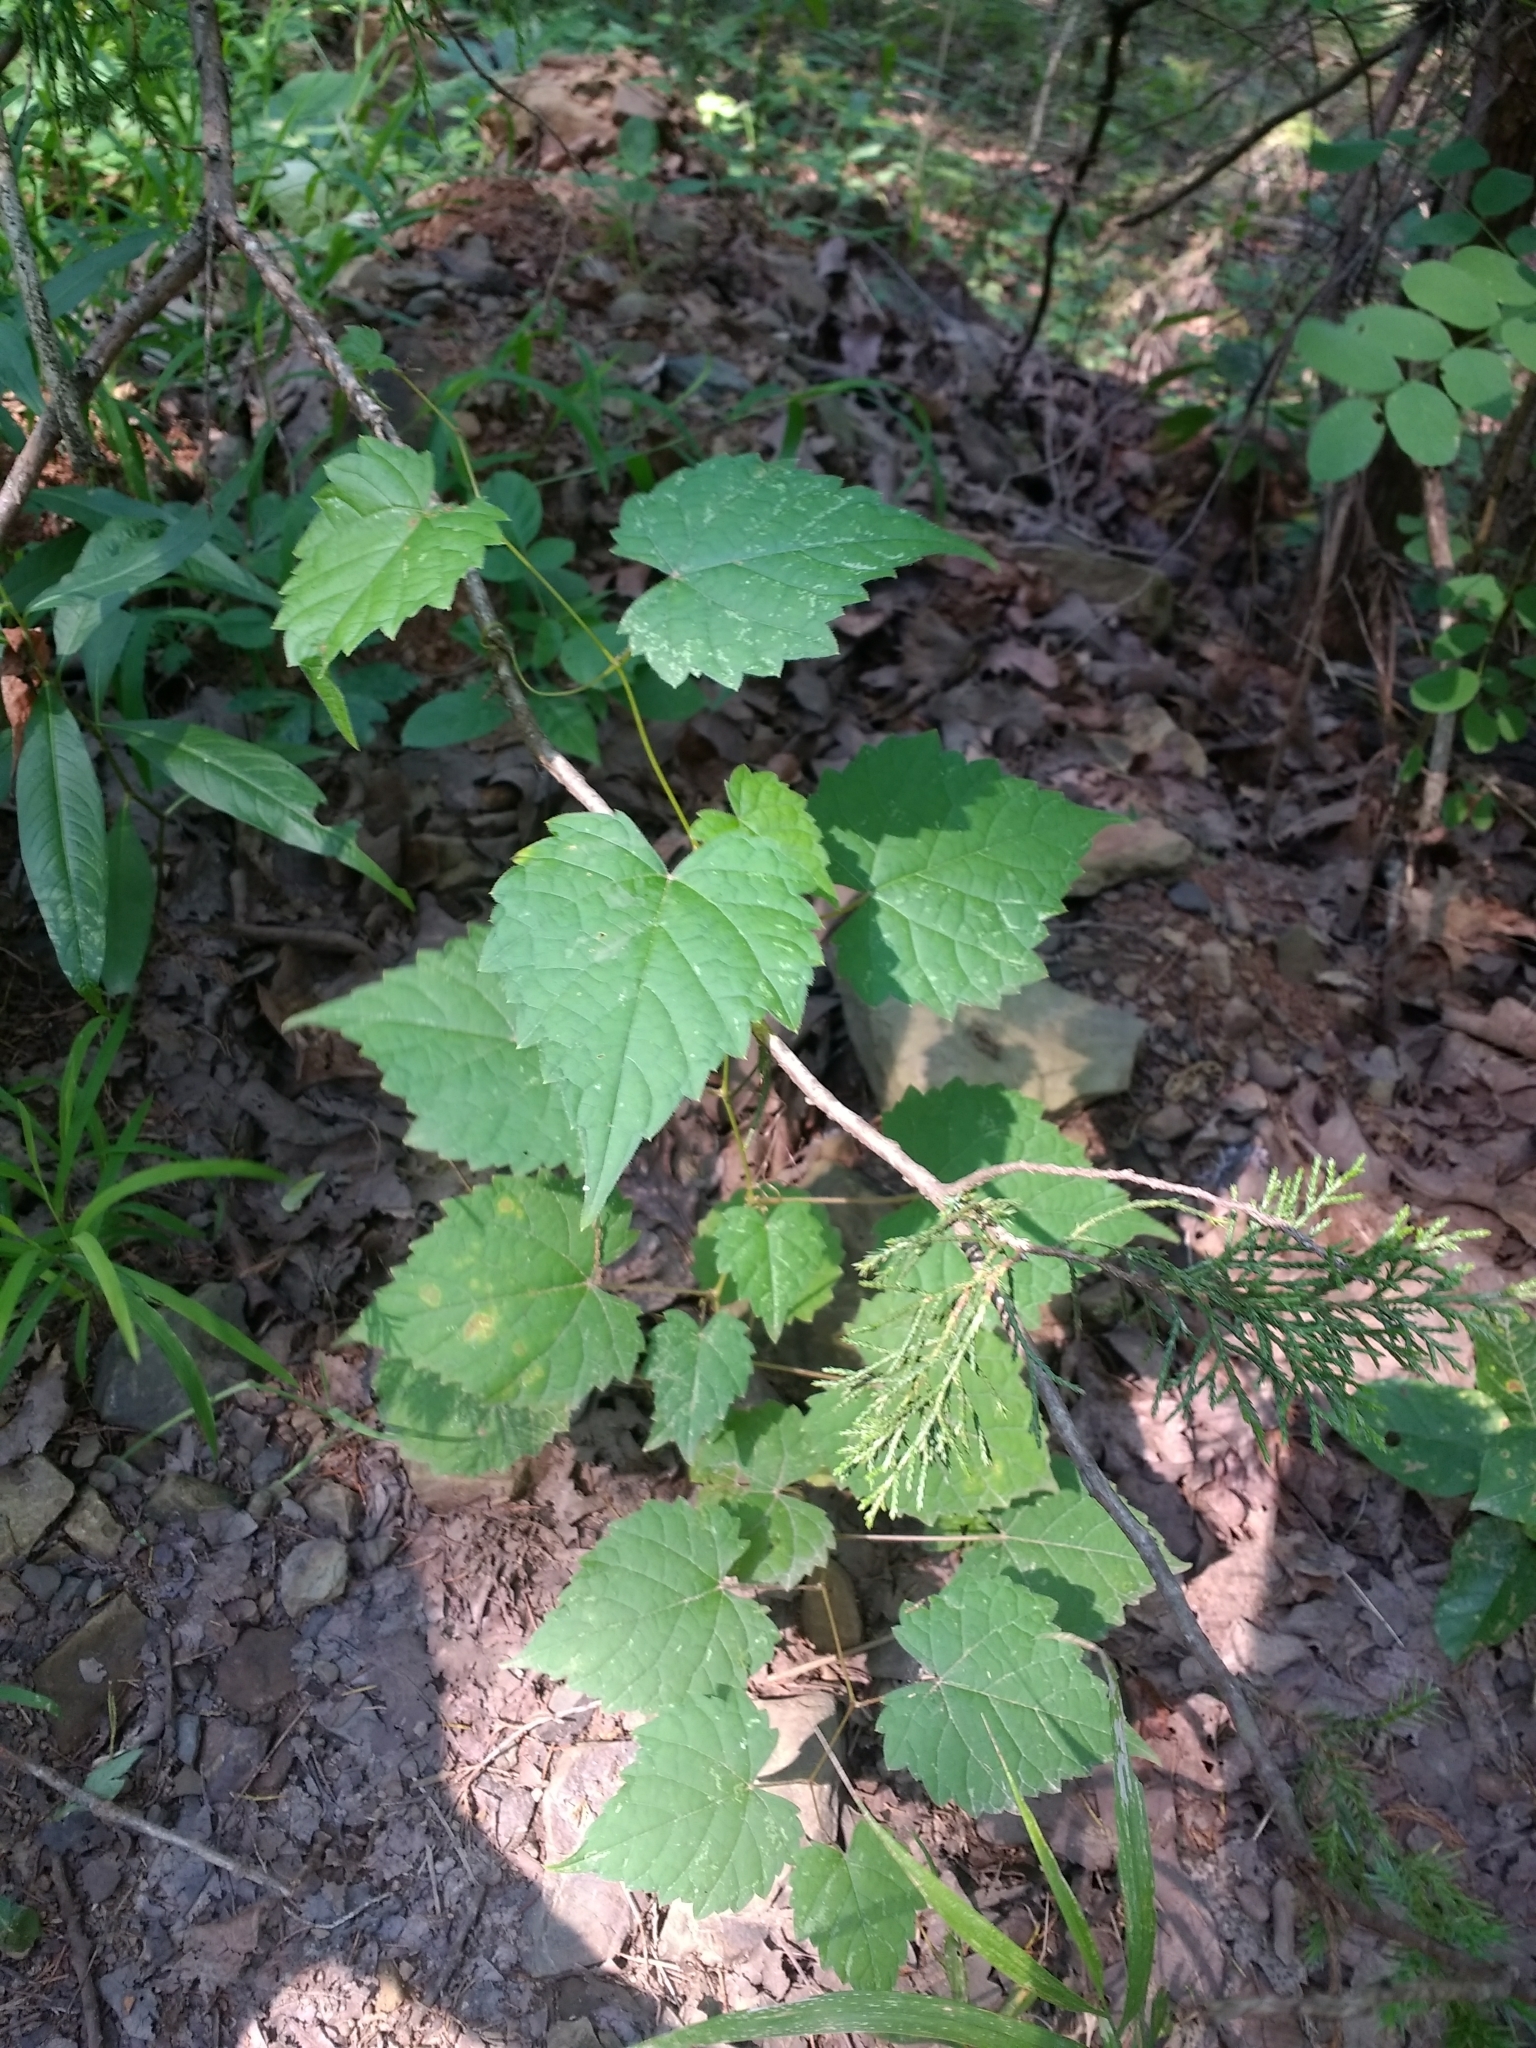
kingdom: Plantae
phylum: Tracheophyta
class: Magnoliopsida
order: Vitales
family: Vitaceae
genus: Vitis
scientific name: Vitis vulpina
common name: Frost grape
